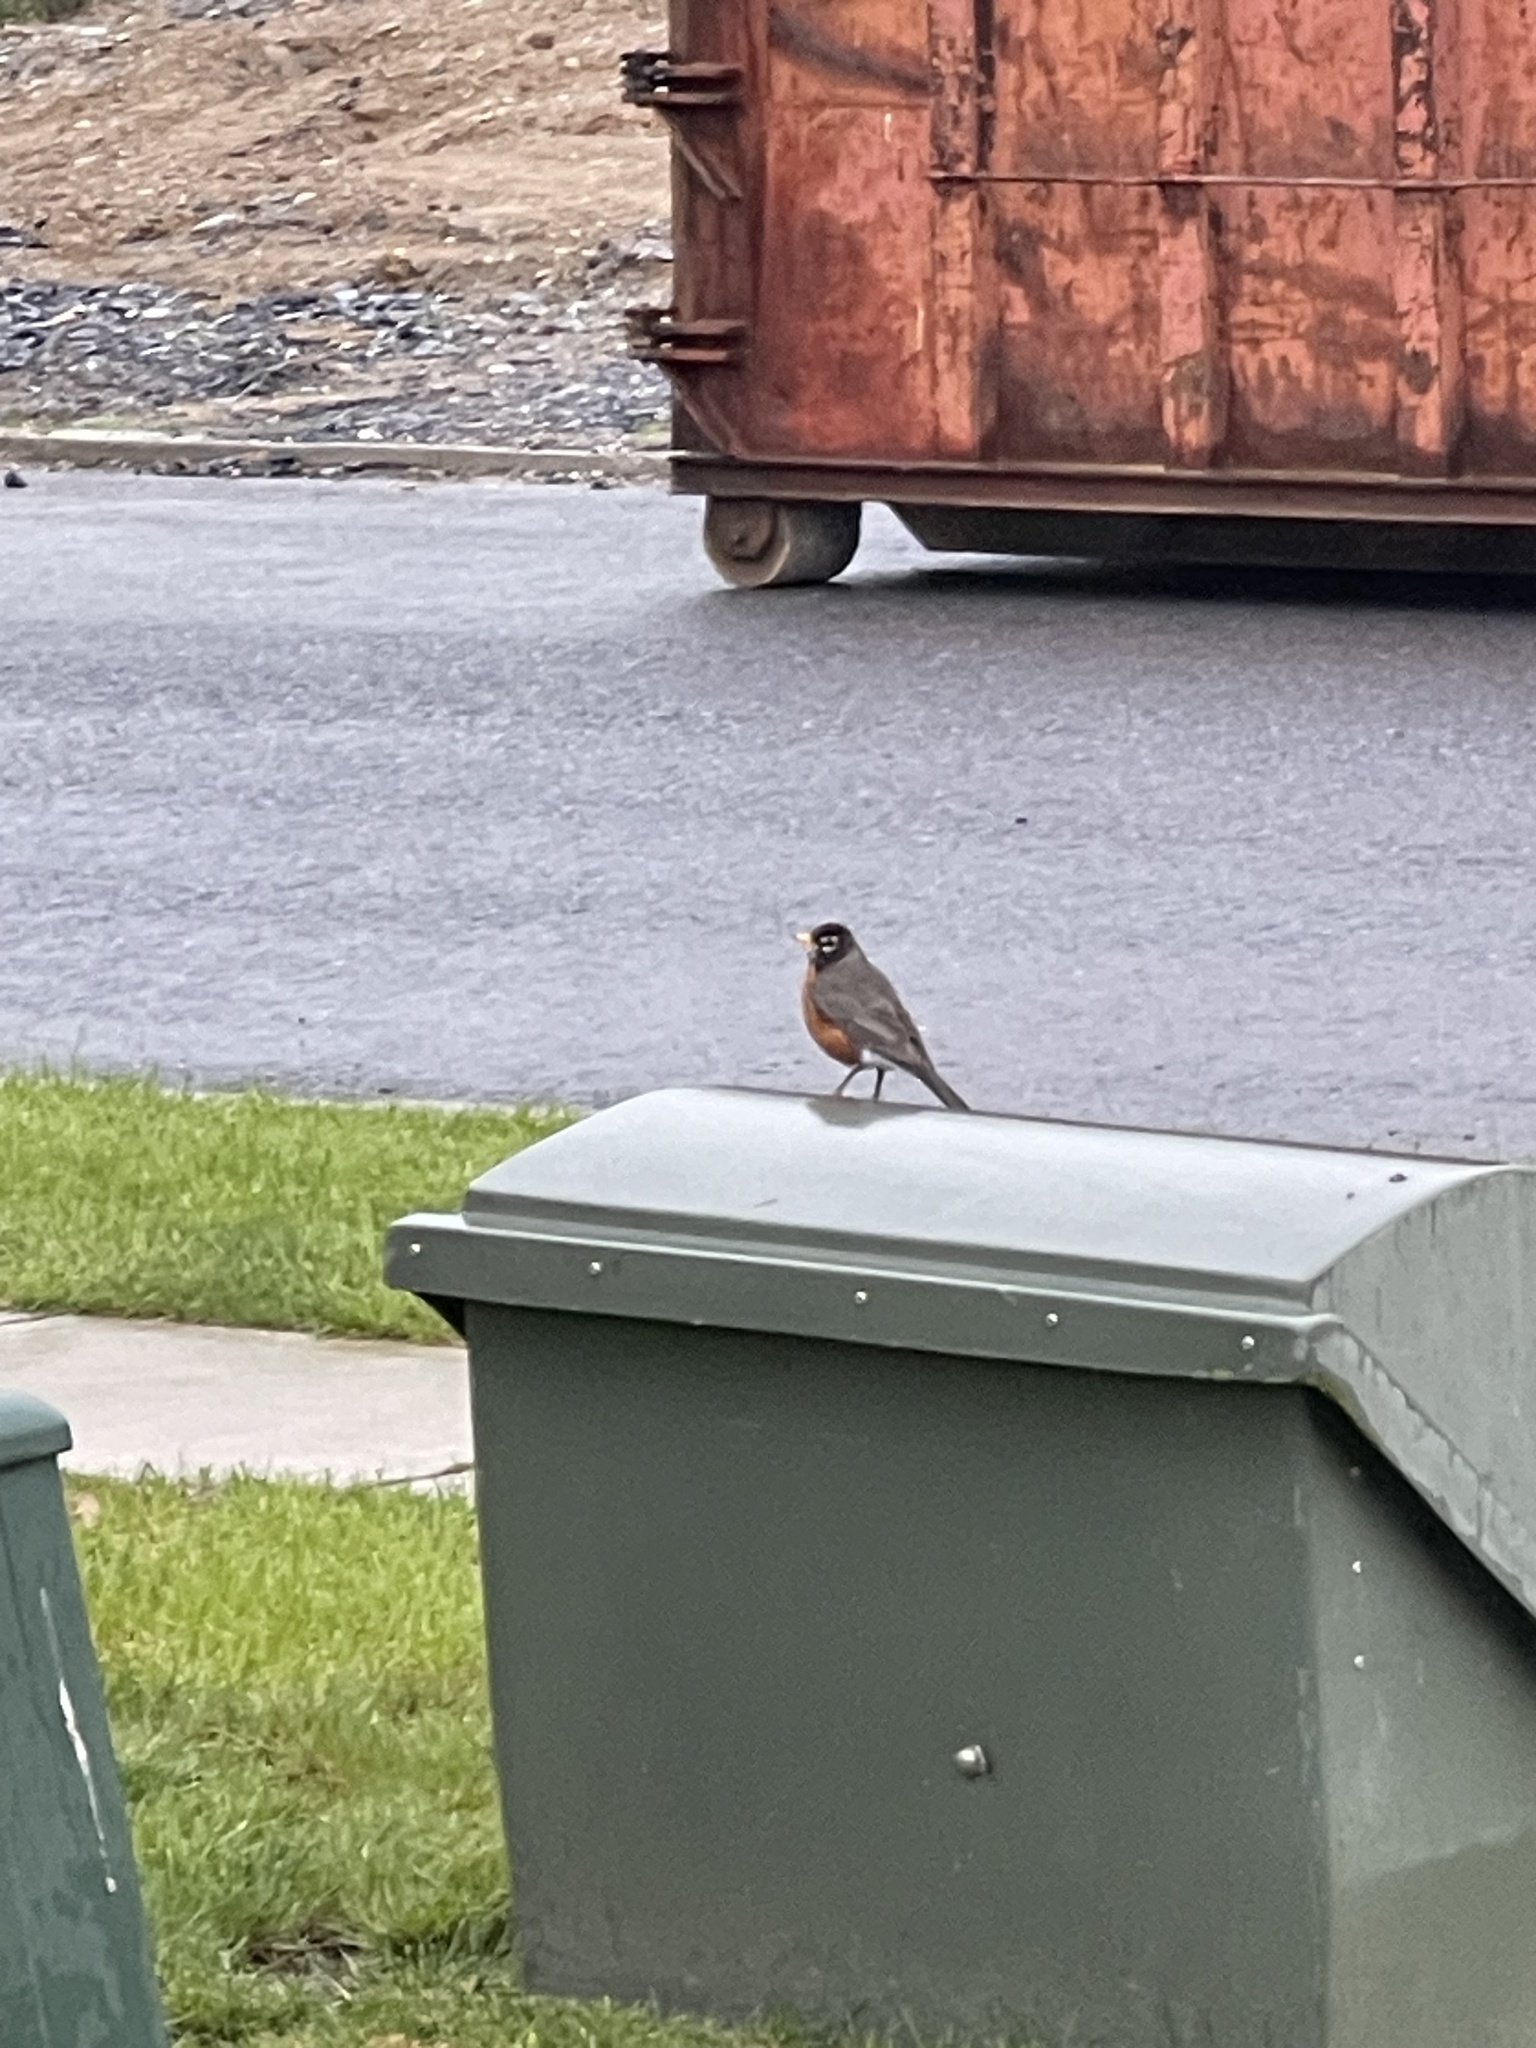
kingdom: Animalia
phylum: Chordata
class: Aves
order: Passeriformes
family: Turdidae
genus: Turdus
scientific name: Turdus migratorius
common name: American robin
